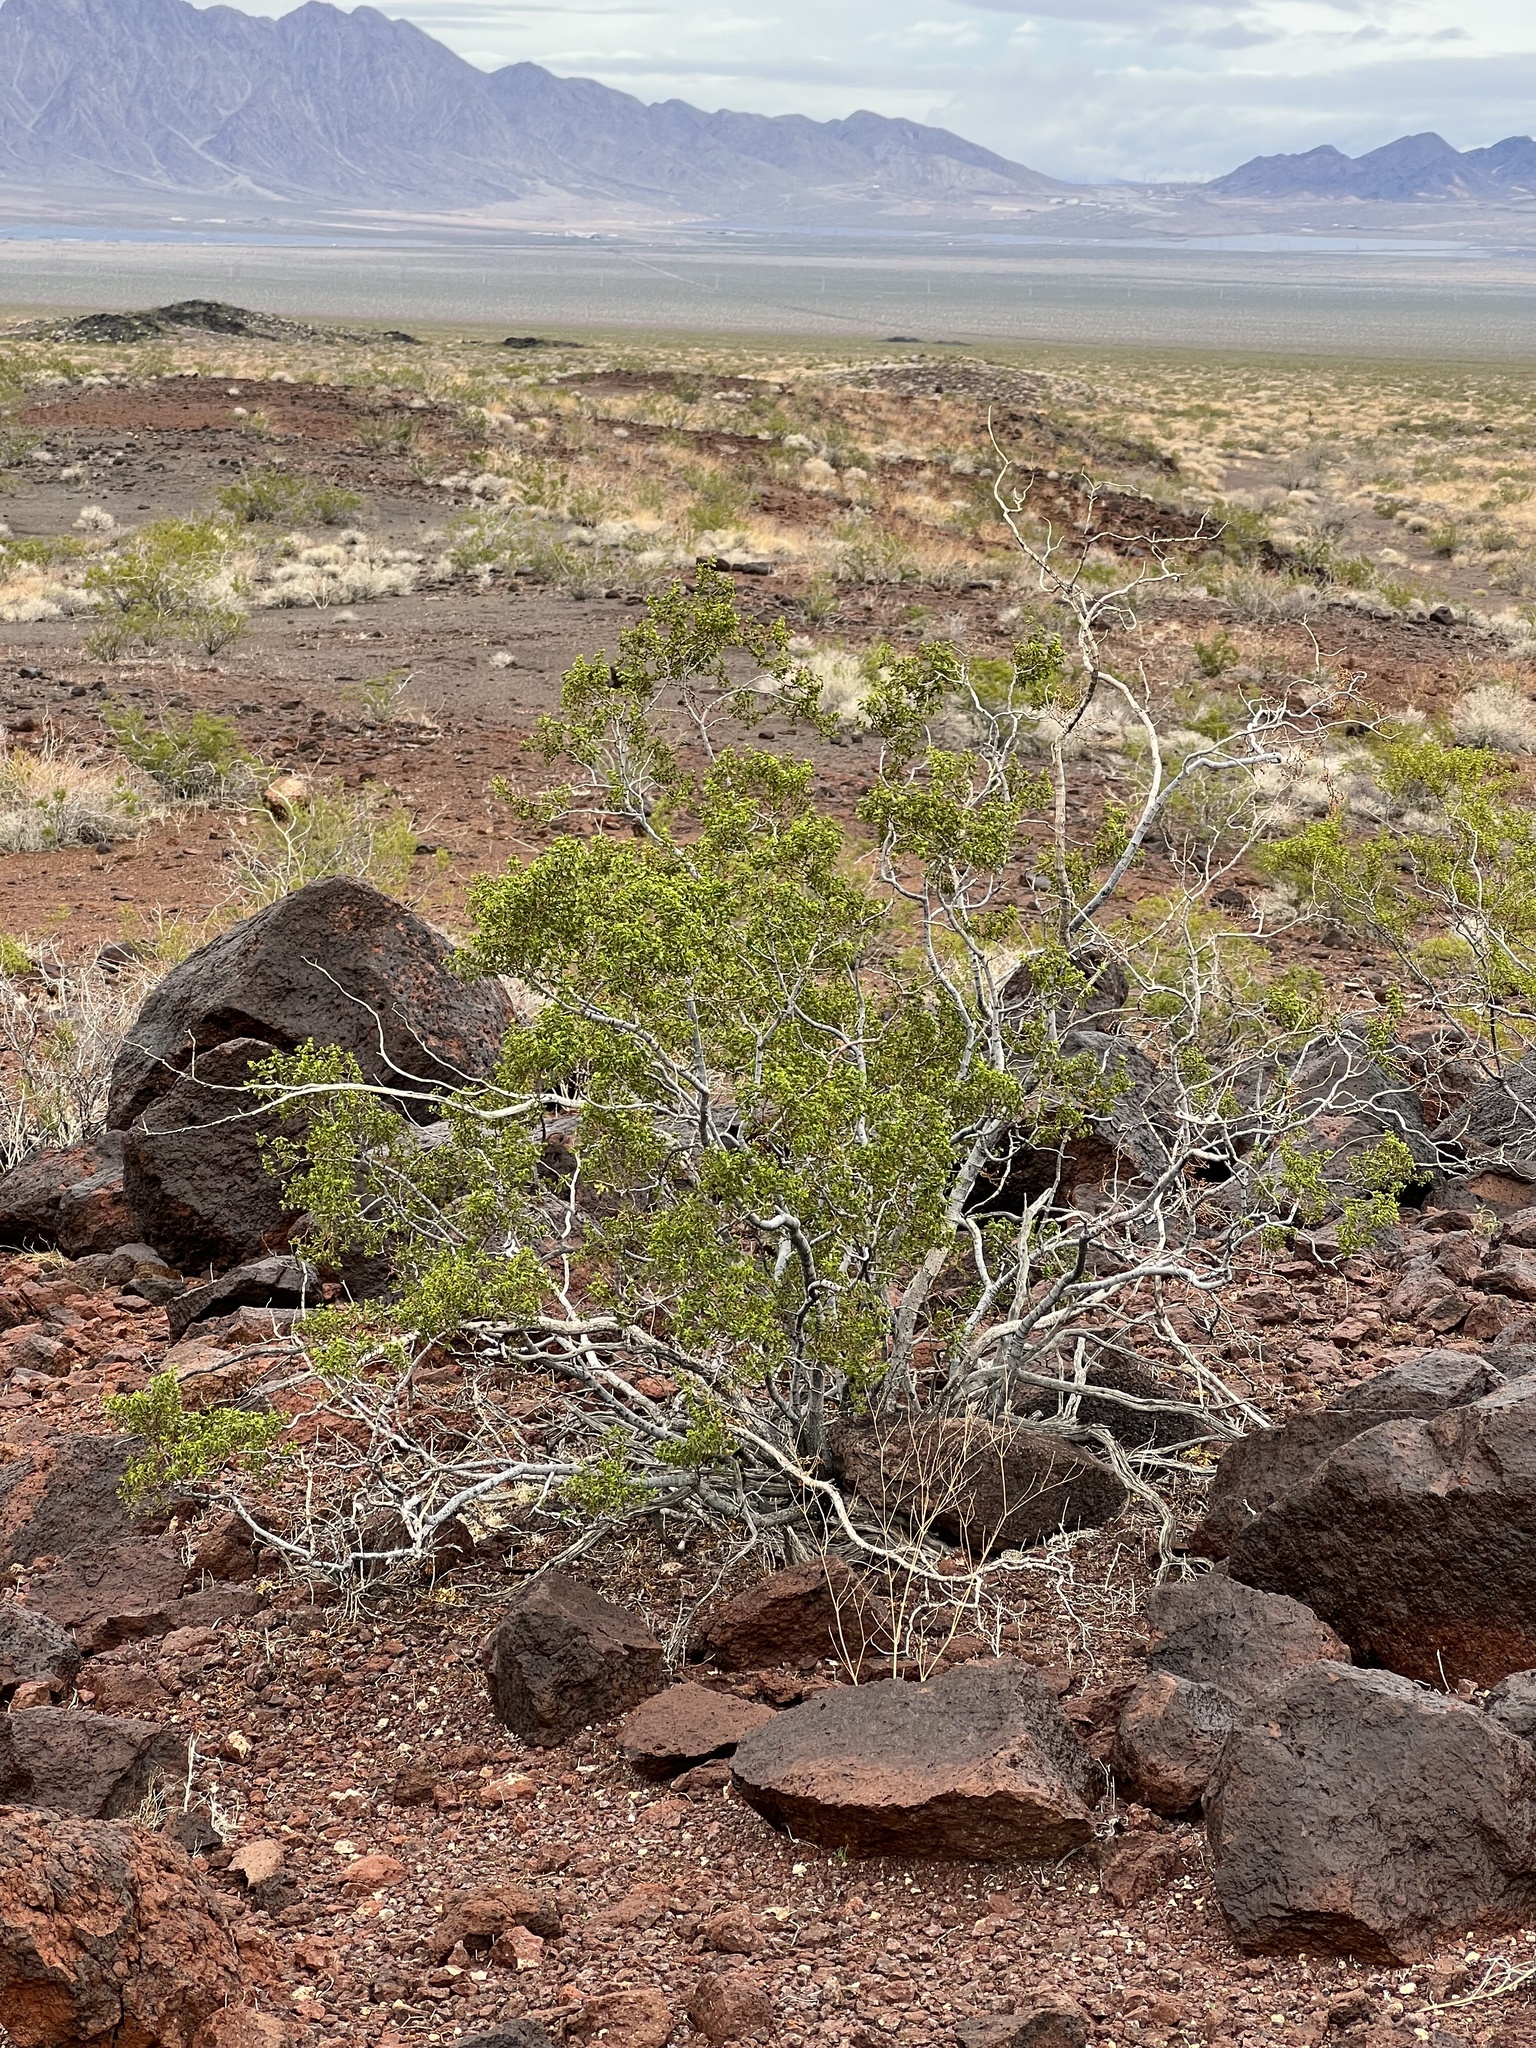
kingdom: Plantae
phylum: Tracheophyta
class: Magnoliopsida
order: Zygophyllales
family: Zygophyllaceae
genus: Larrea
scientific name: Larrea tridentata
